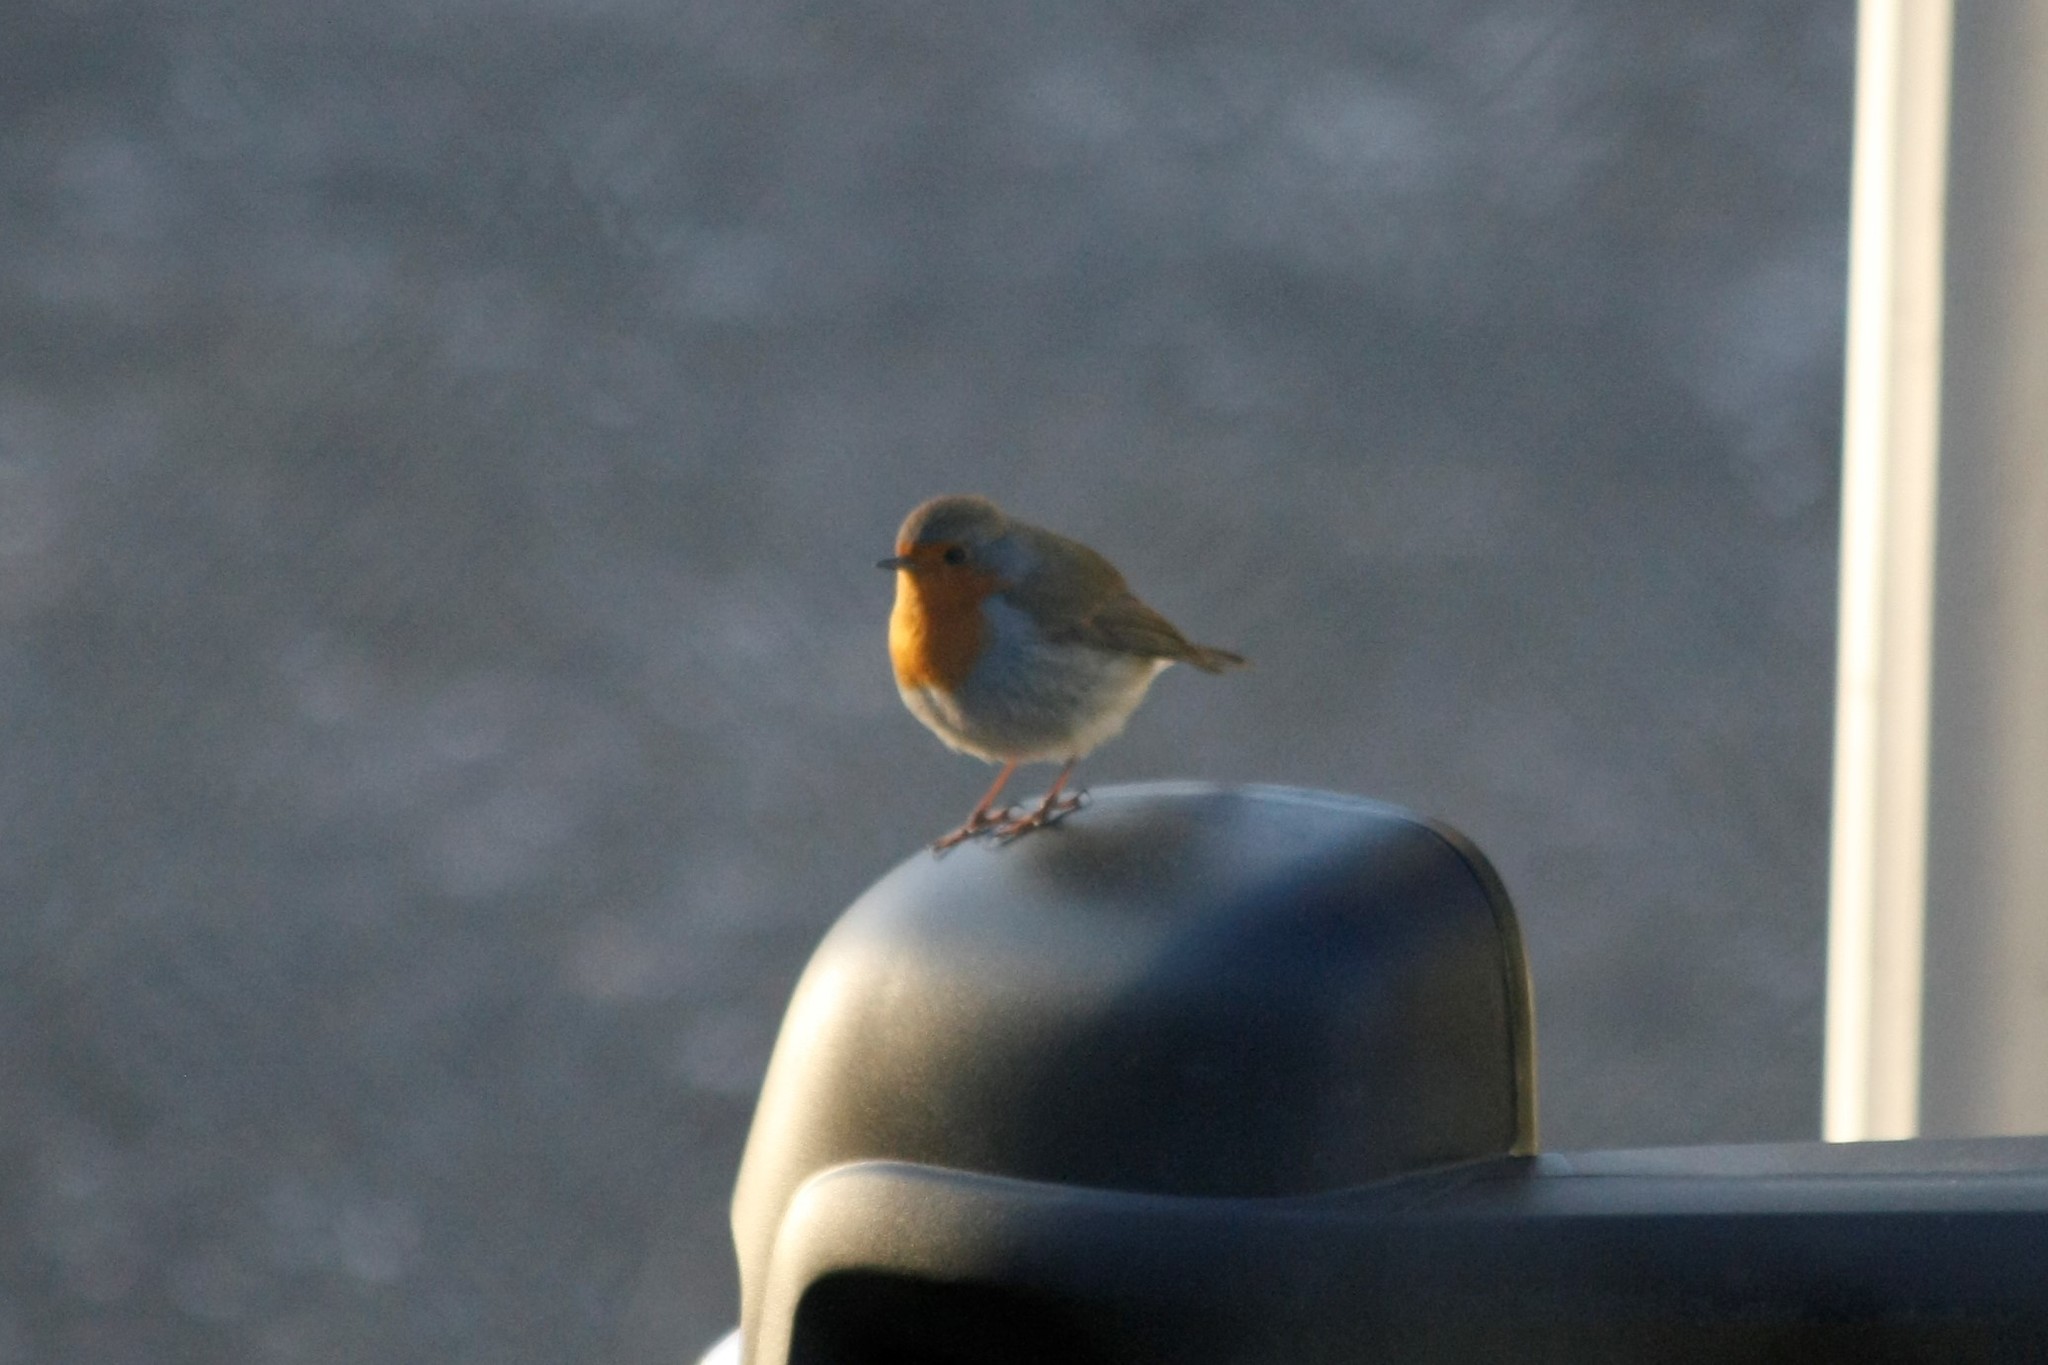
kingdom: Animalia
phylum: Chordata
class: Aves
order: Passeriformes
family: Muscicapidae
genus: Erithacus
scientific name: Erithacus rubecula
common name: European robin
